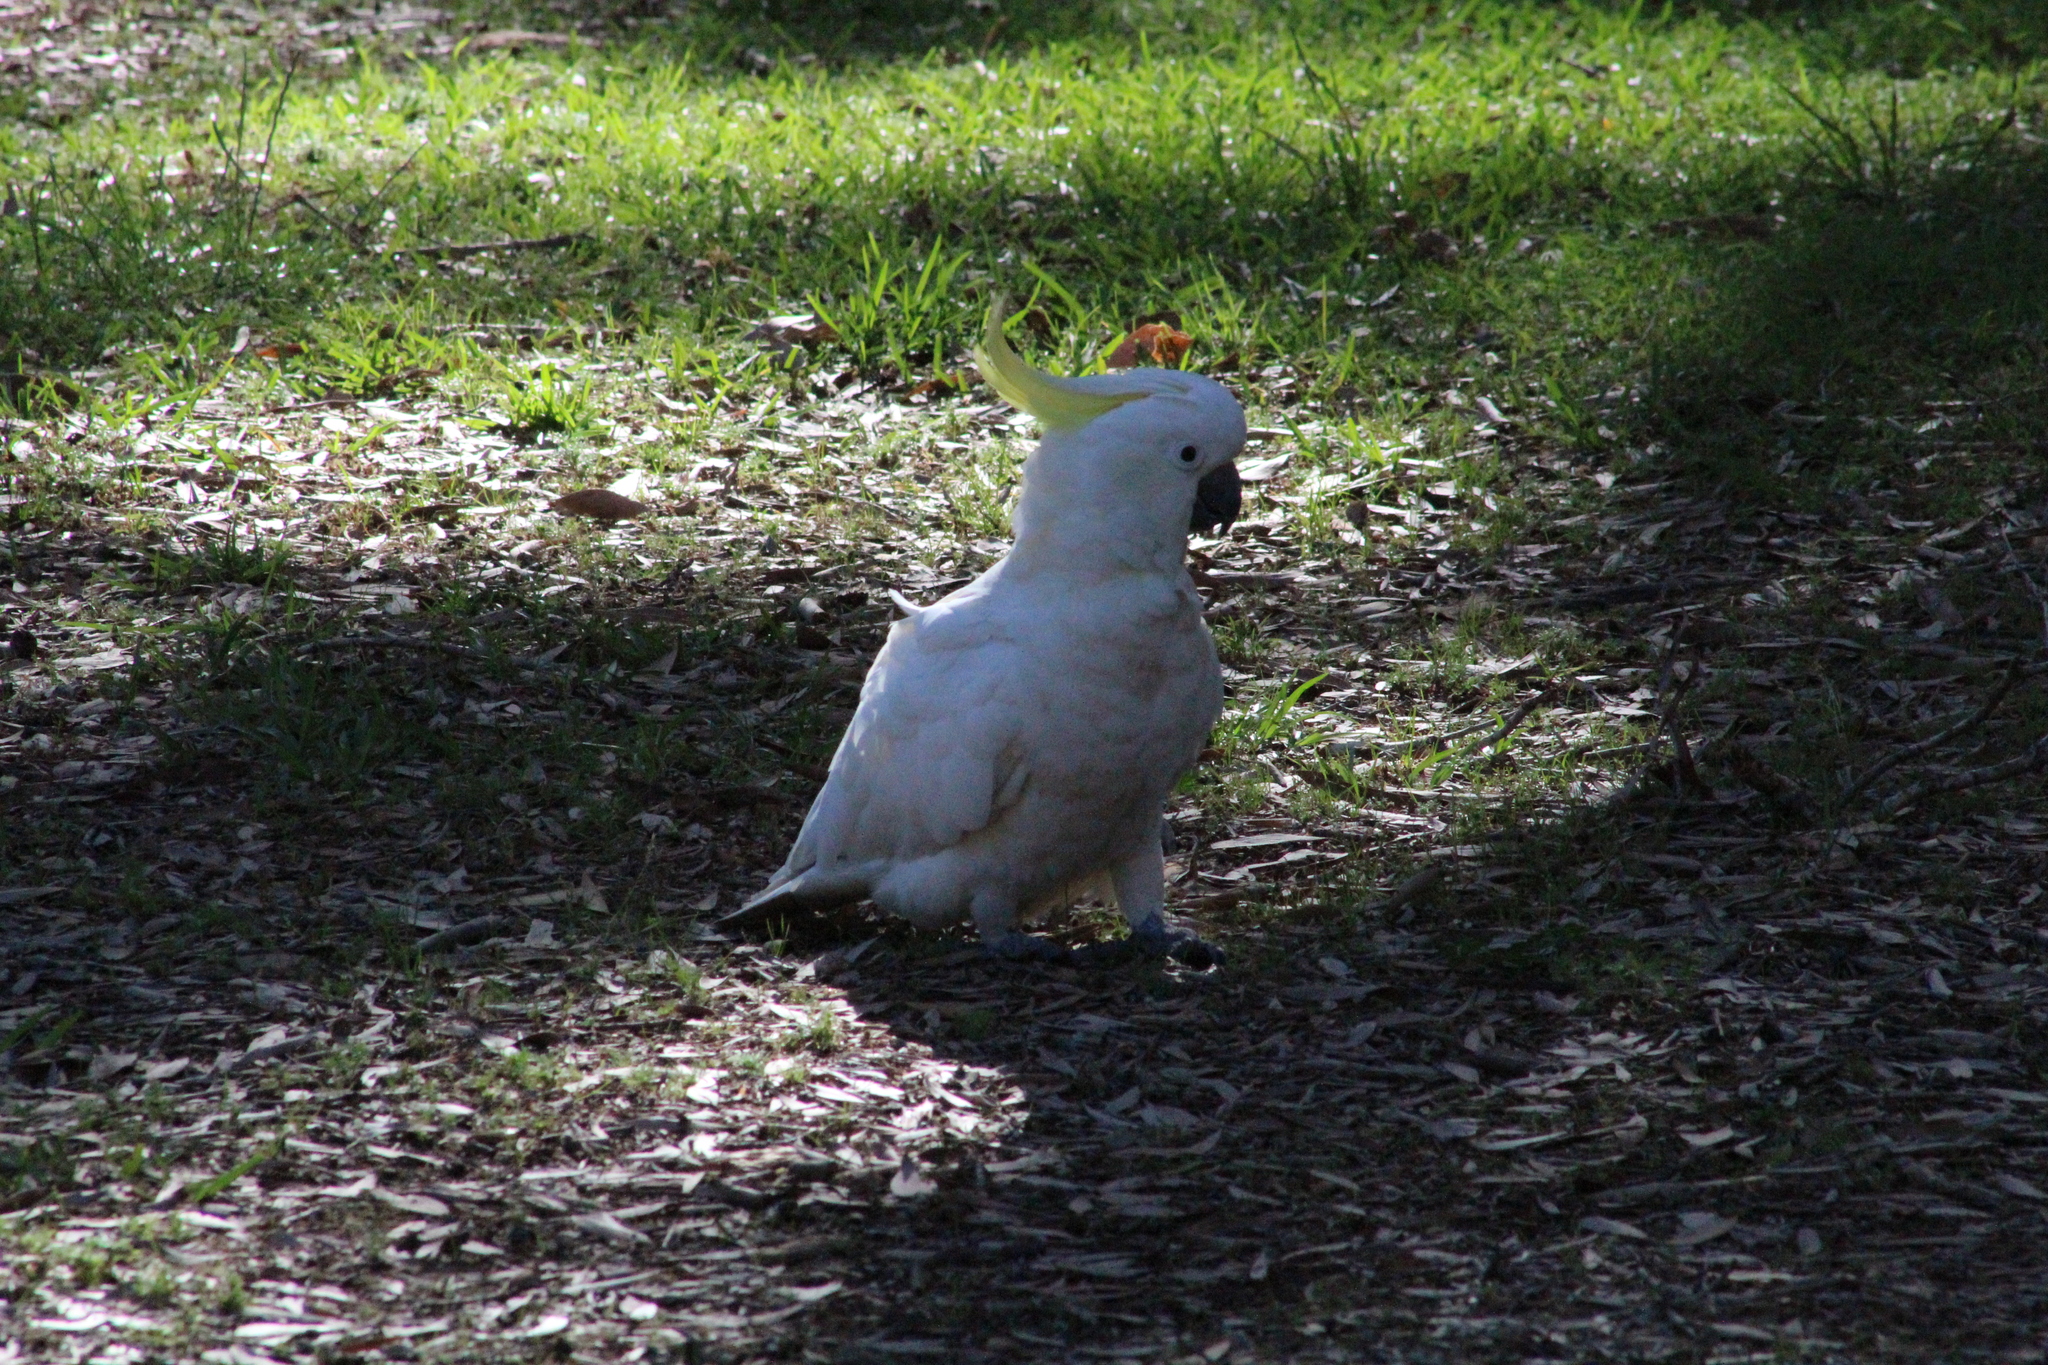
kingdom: Animalia
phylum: Chordata
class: Aves
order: Psittaciformes
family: Psittacidae
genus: Cacatua
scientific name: Cacatua galerita
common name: Sulphur-crested cockatoo
